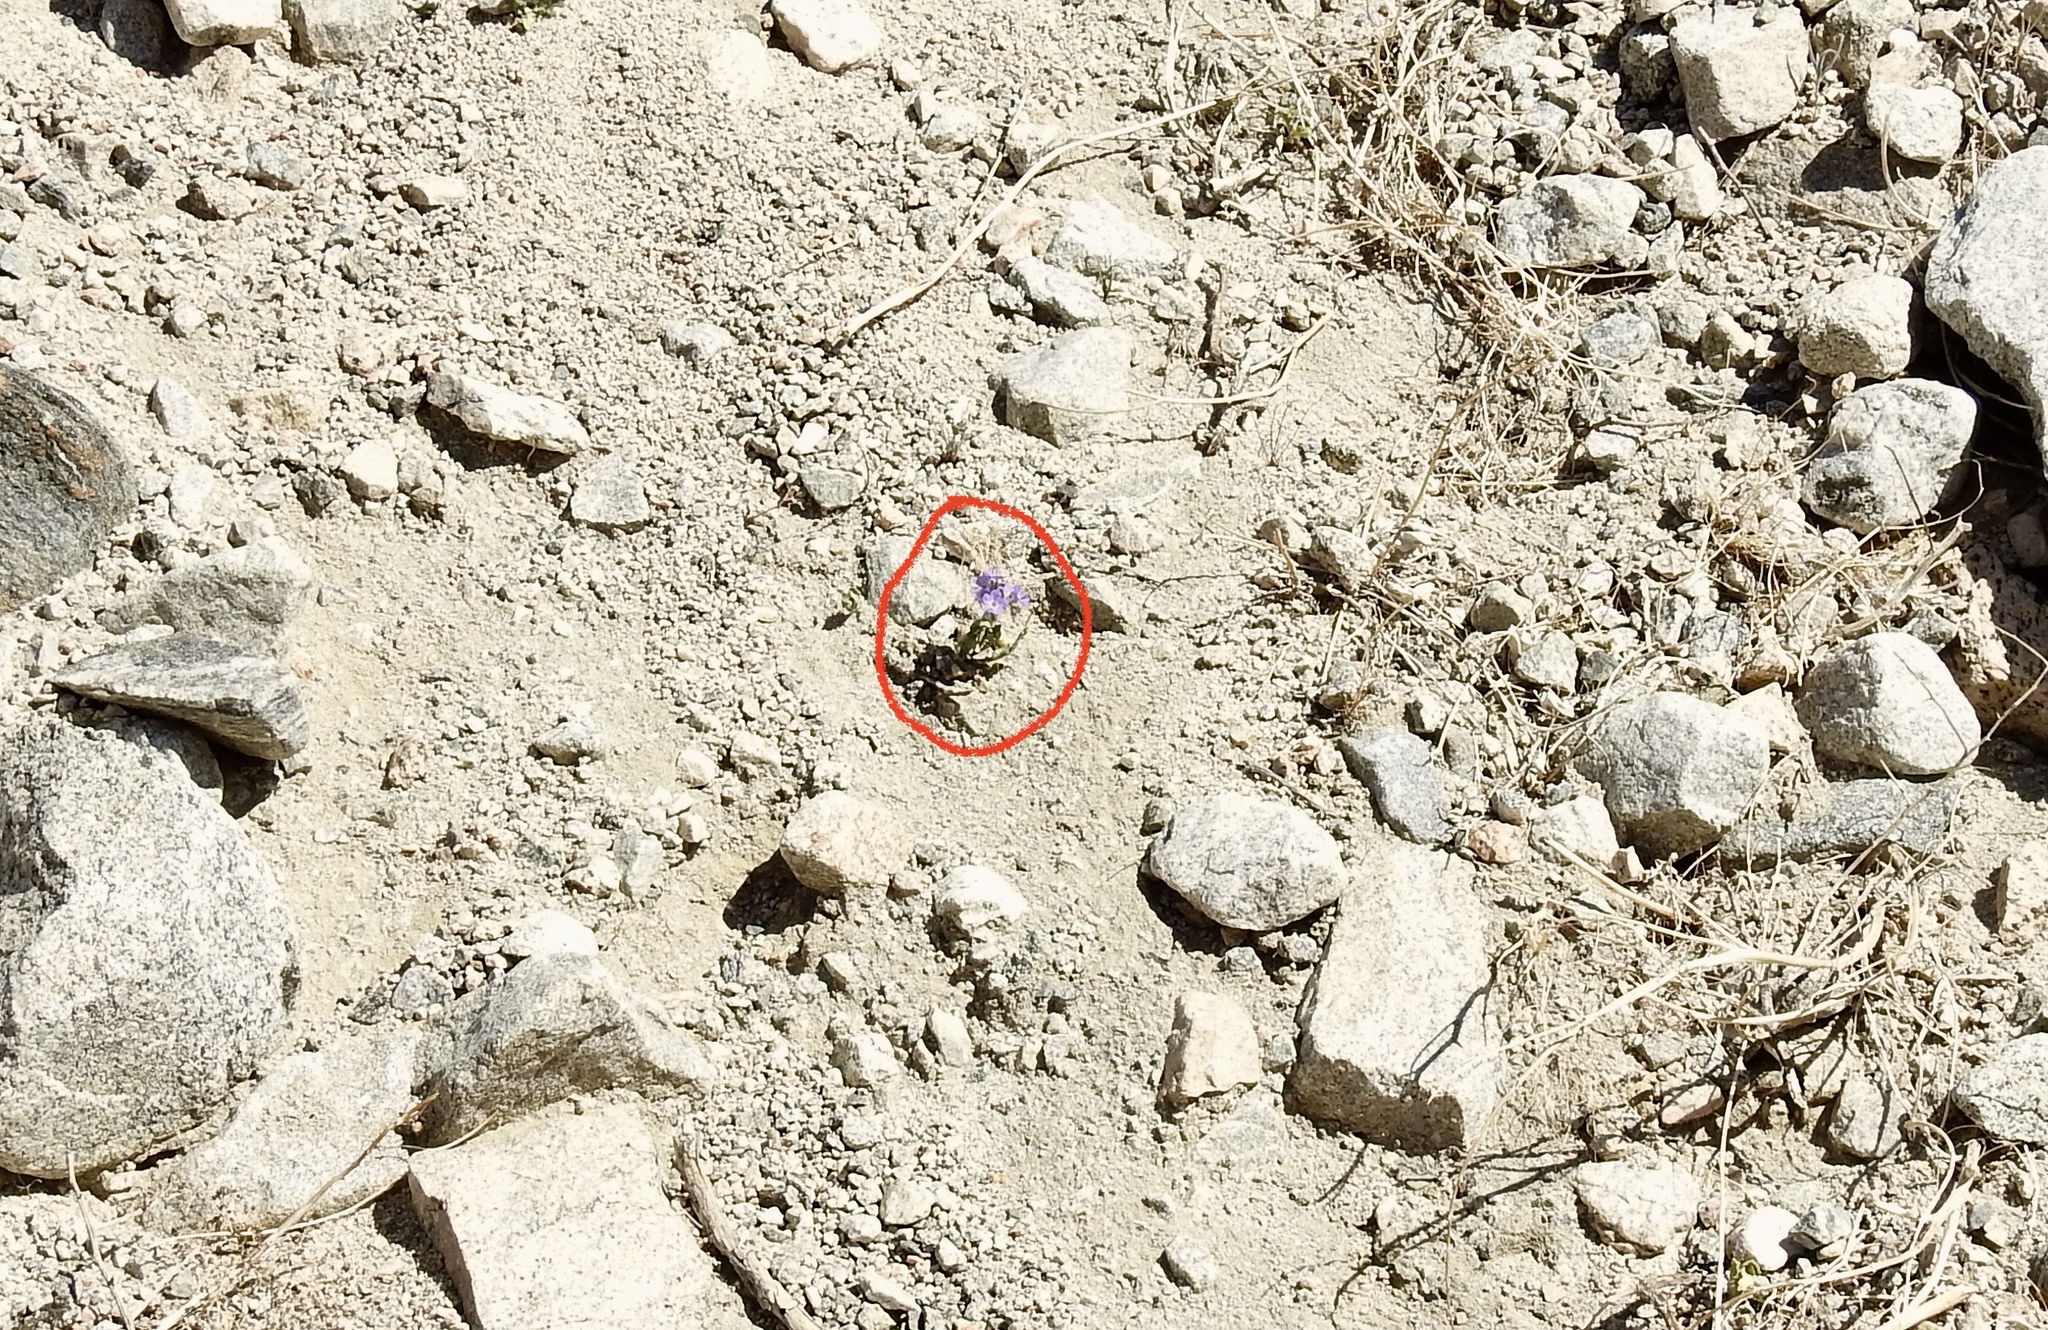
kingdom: Plantae
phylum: Tracheophyta
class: Magnoliopsida
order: Boraginales
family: Hydrophyllaceae
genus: Phacelia
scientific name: Phacelia crenulata
